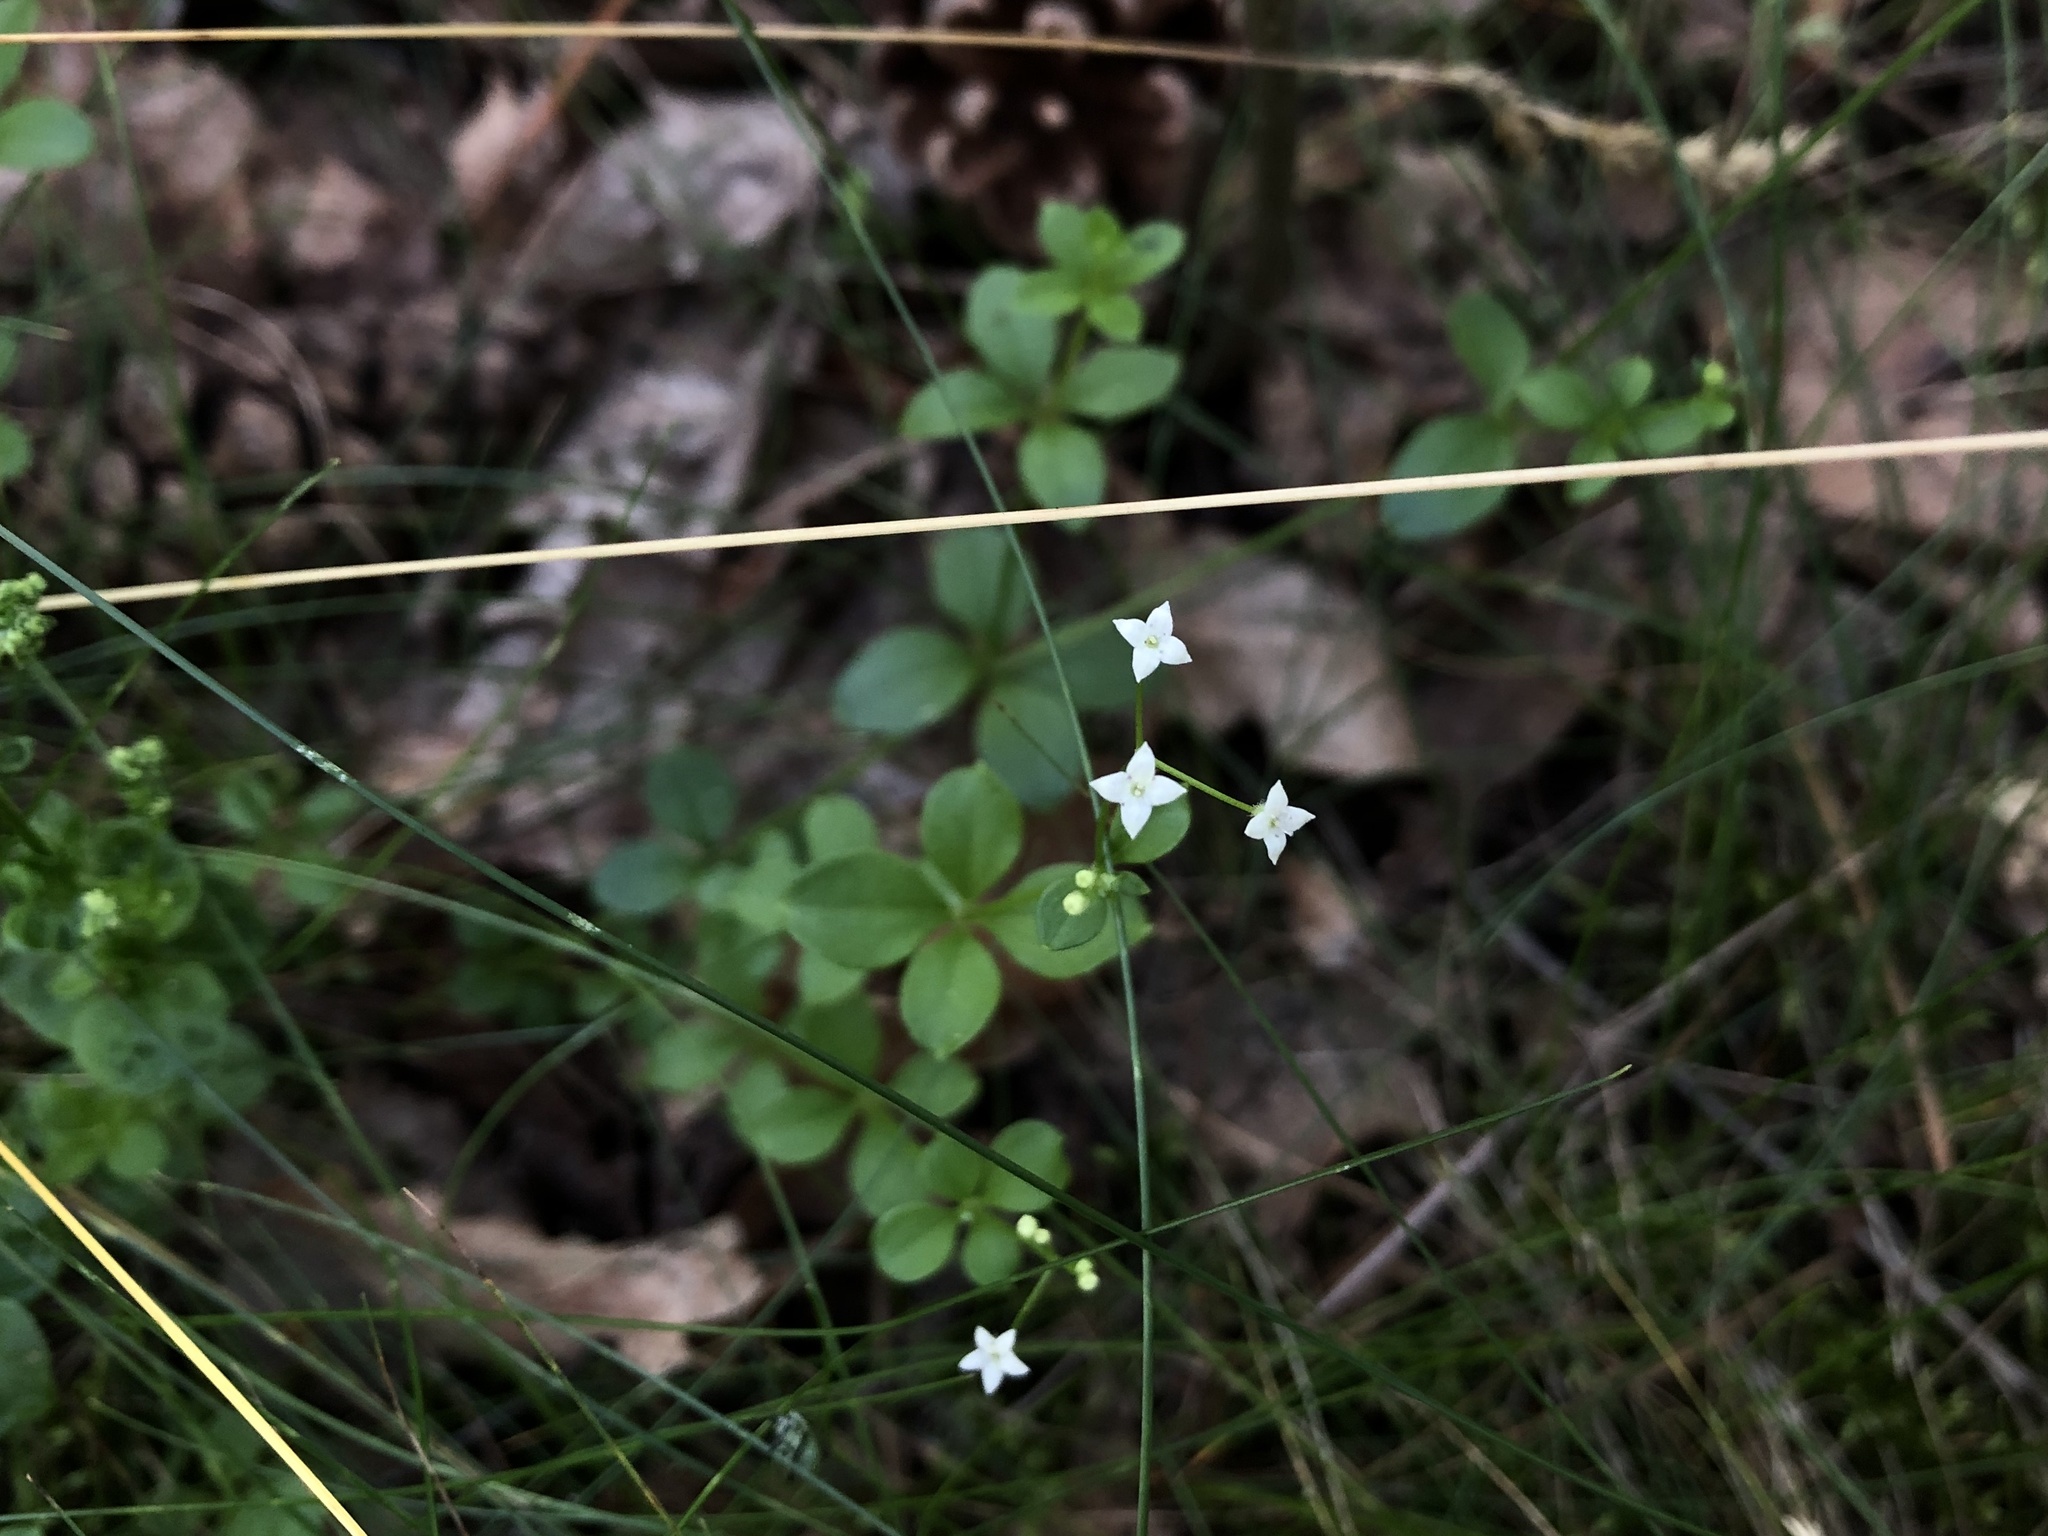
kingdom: Plantae
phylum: Tracheophyta
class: Magnoliopsida
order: Gentianales
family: Rubiaceae
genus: Galium
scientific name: Galium rotundifolium
